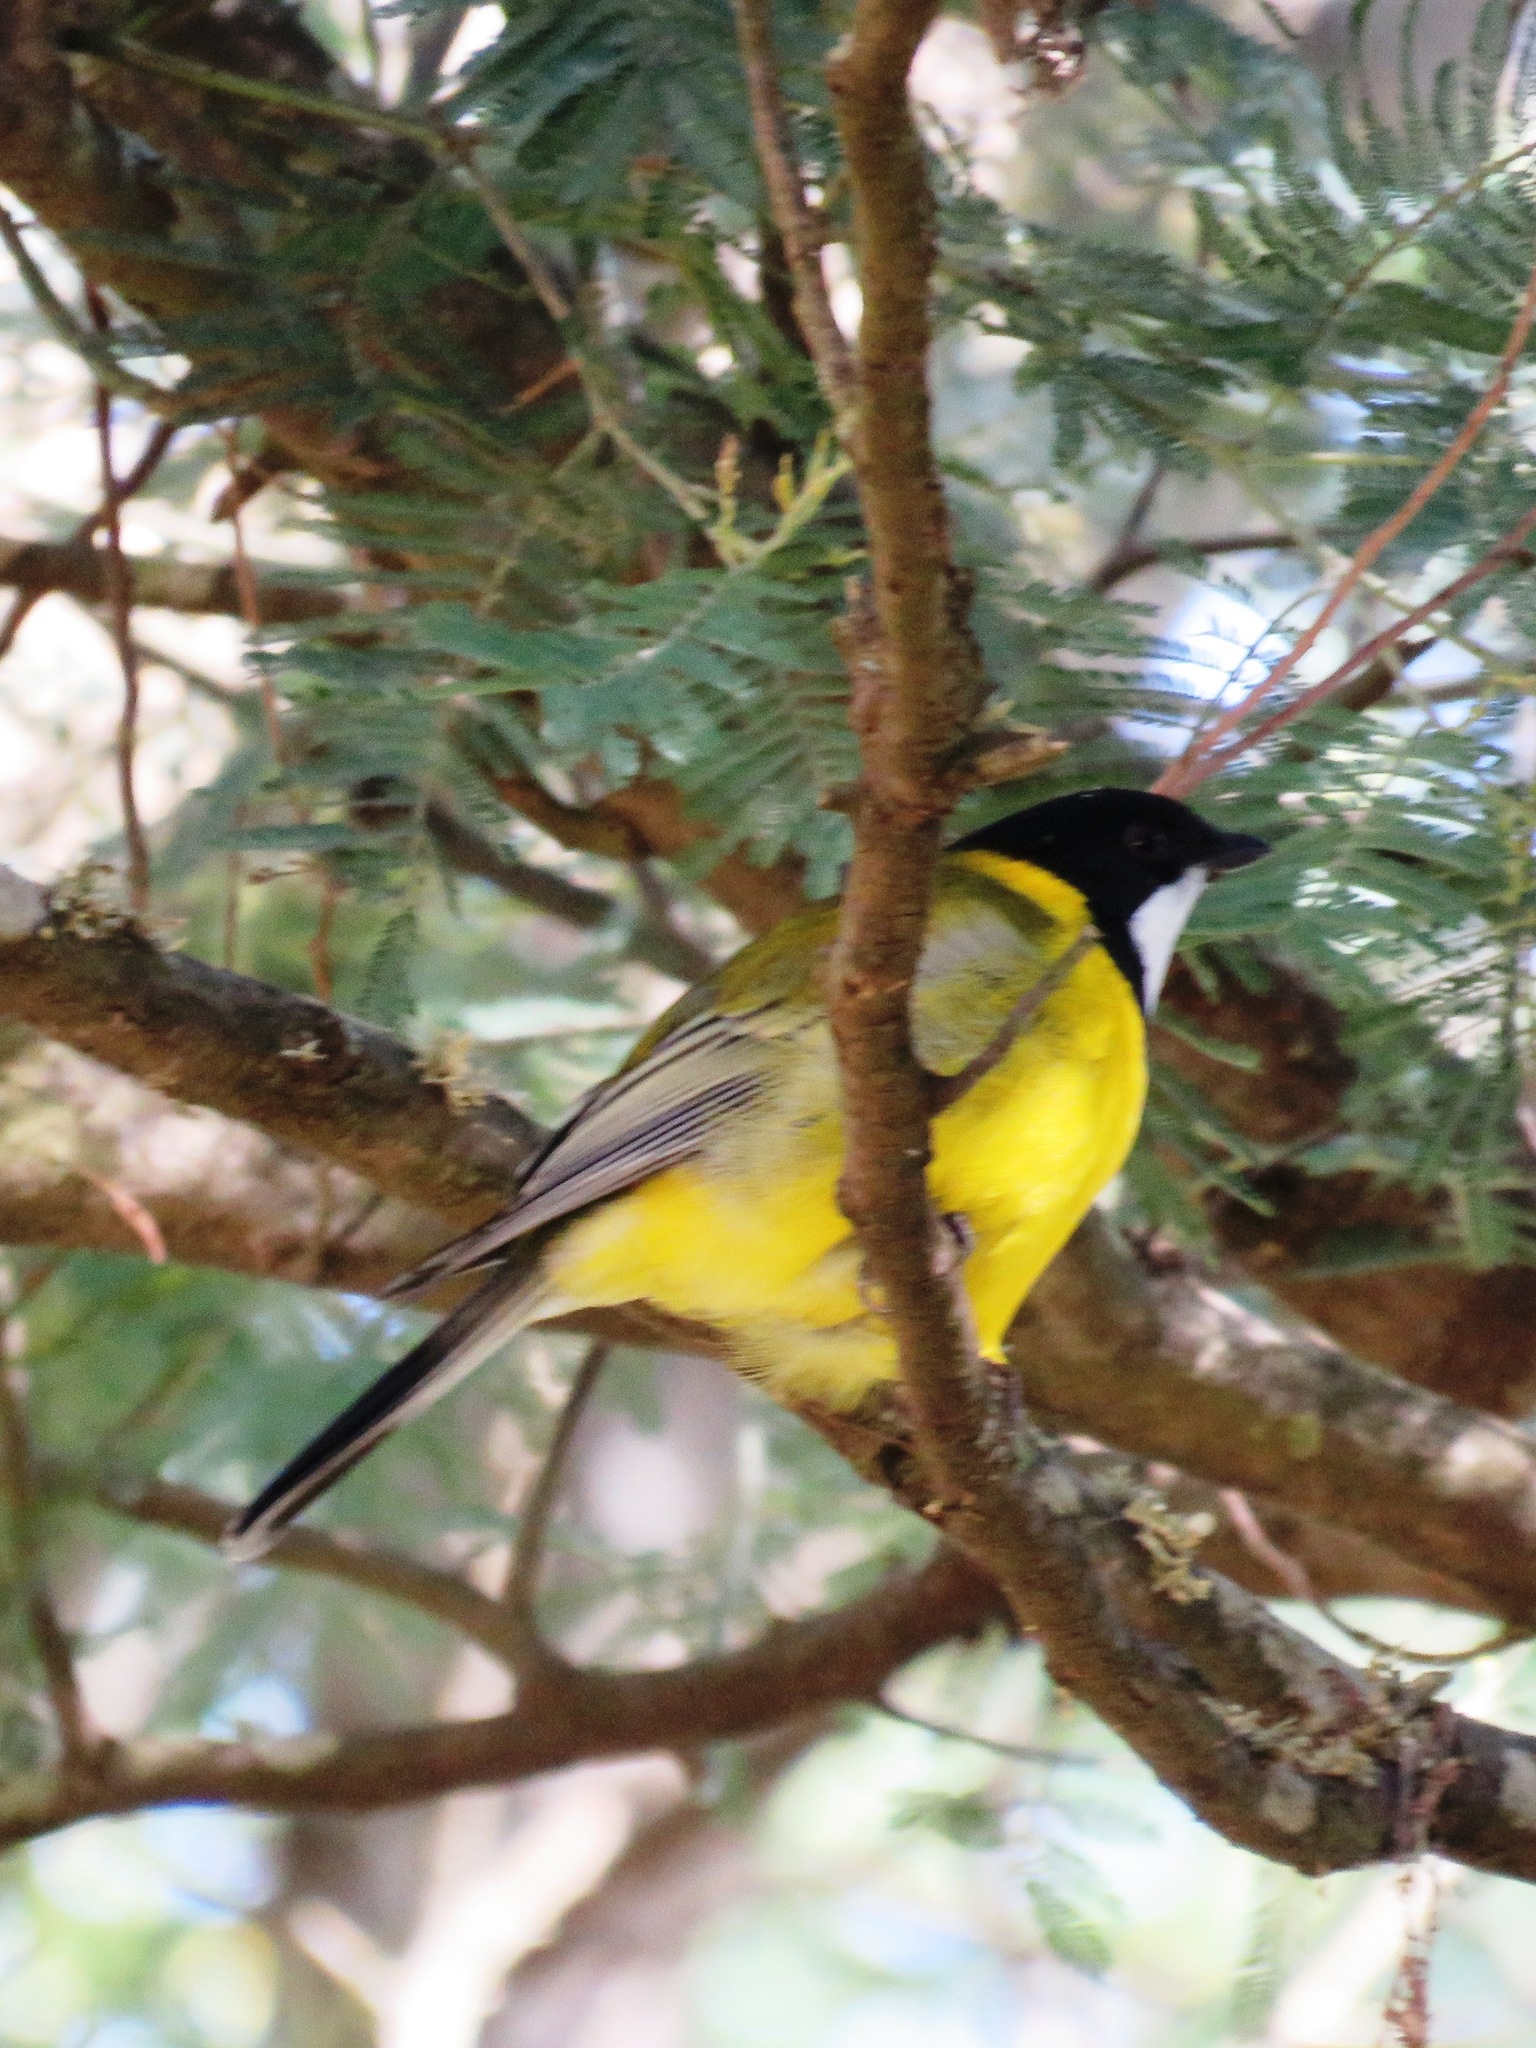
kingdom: Animalia
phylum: Chordata
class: Aves
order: Passeriformes
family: Pachycephalidae
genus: Pachycephala
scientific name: Pachycephala pectoralis
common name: Australian golden whistler
